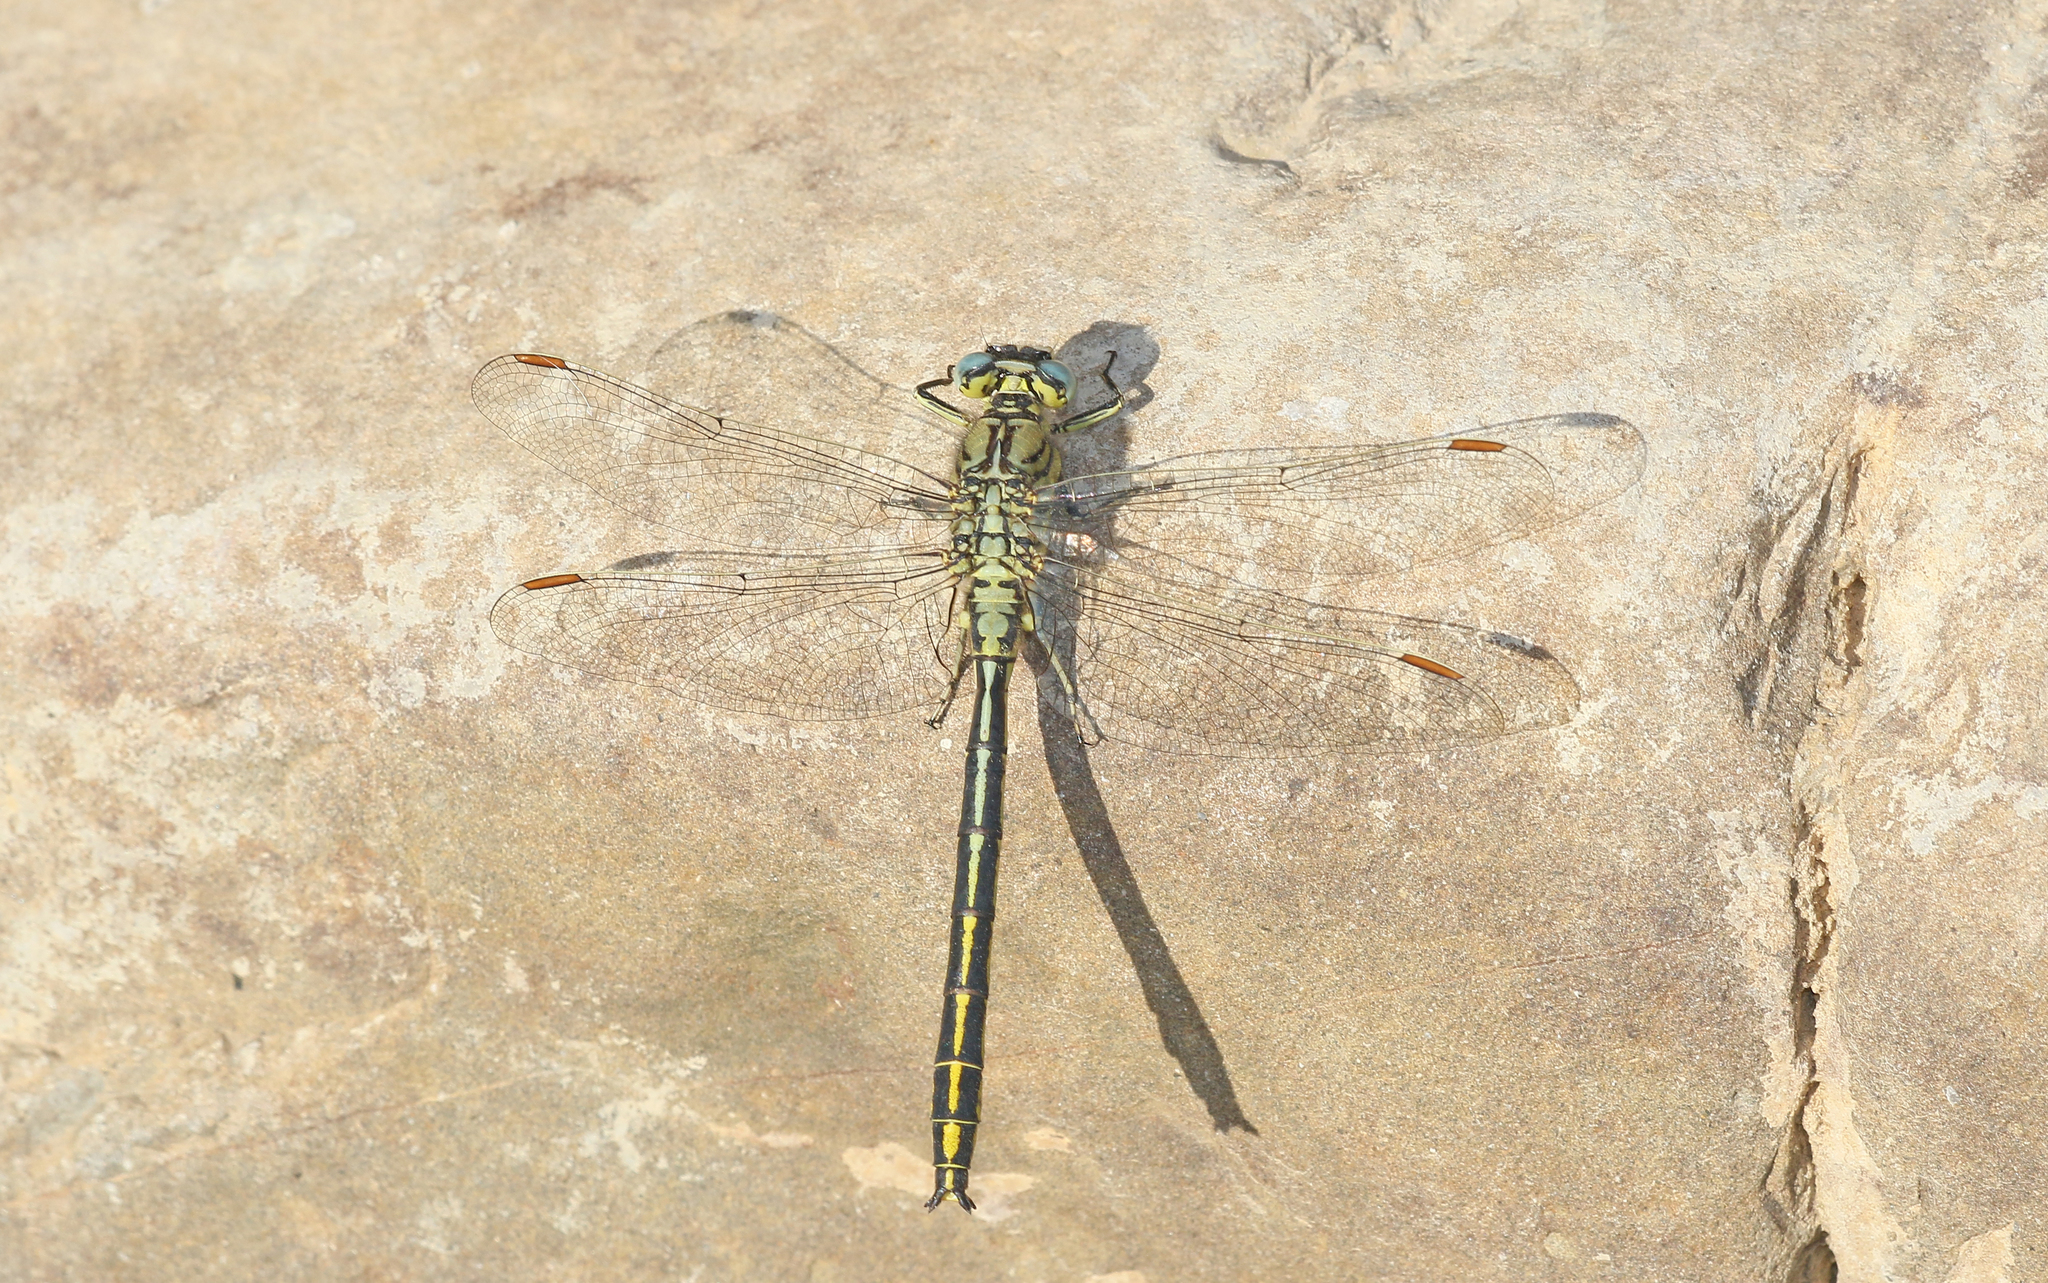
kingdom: Animalia
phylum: Arthropoda
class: Insecta
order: Odonata
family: Gomphidae
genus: Gomphus
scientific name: Gomphus pulchellus
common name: Western clubtail
